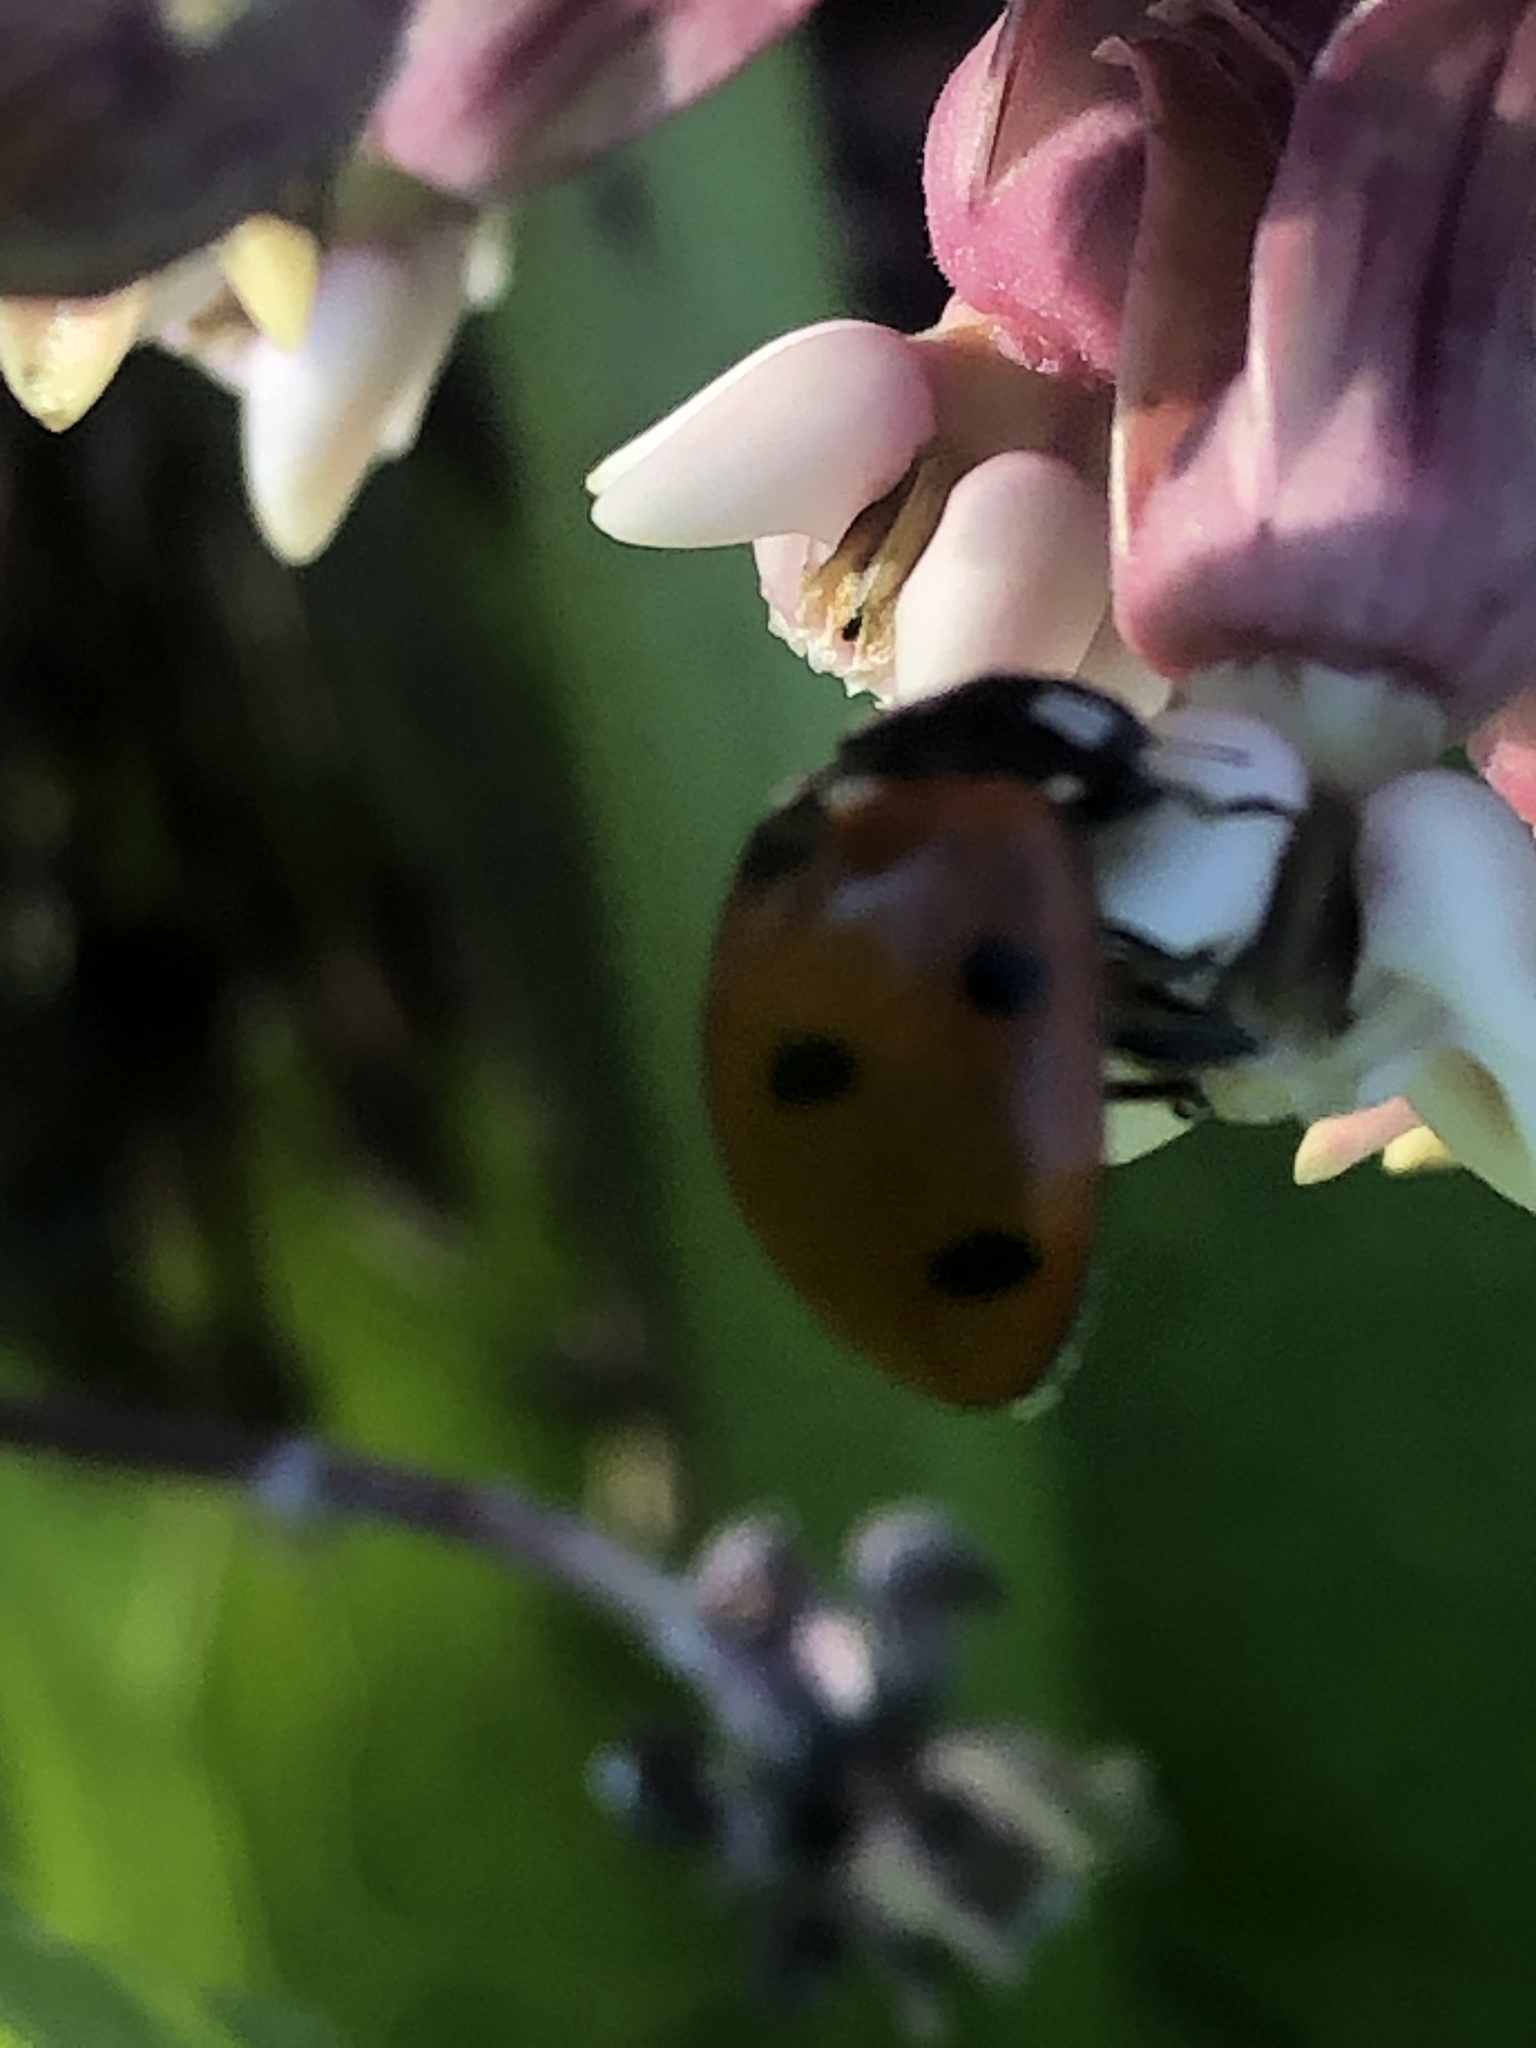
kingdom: Animalia
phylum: Arthropoda
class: Insecta
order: Coleoptera
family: Coccinellidae
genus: Coccinella
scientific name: Coccinella septempunctata
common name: Sevenspotted lady beetle
